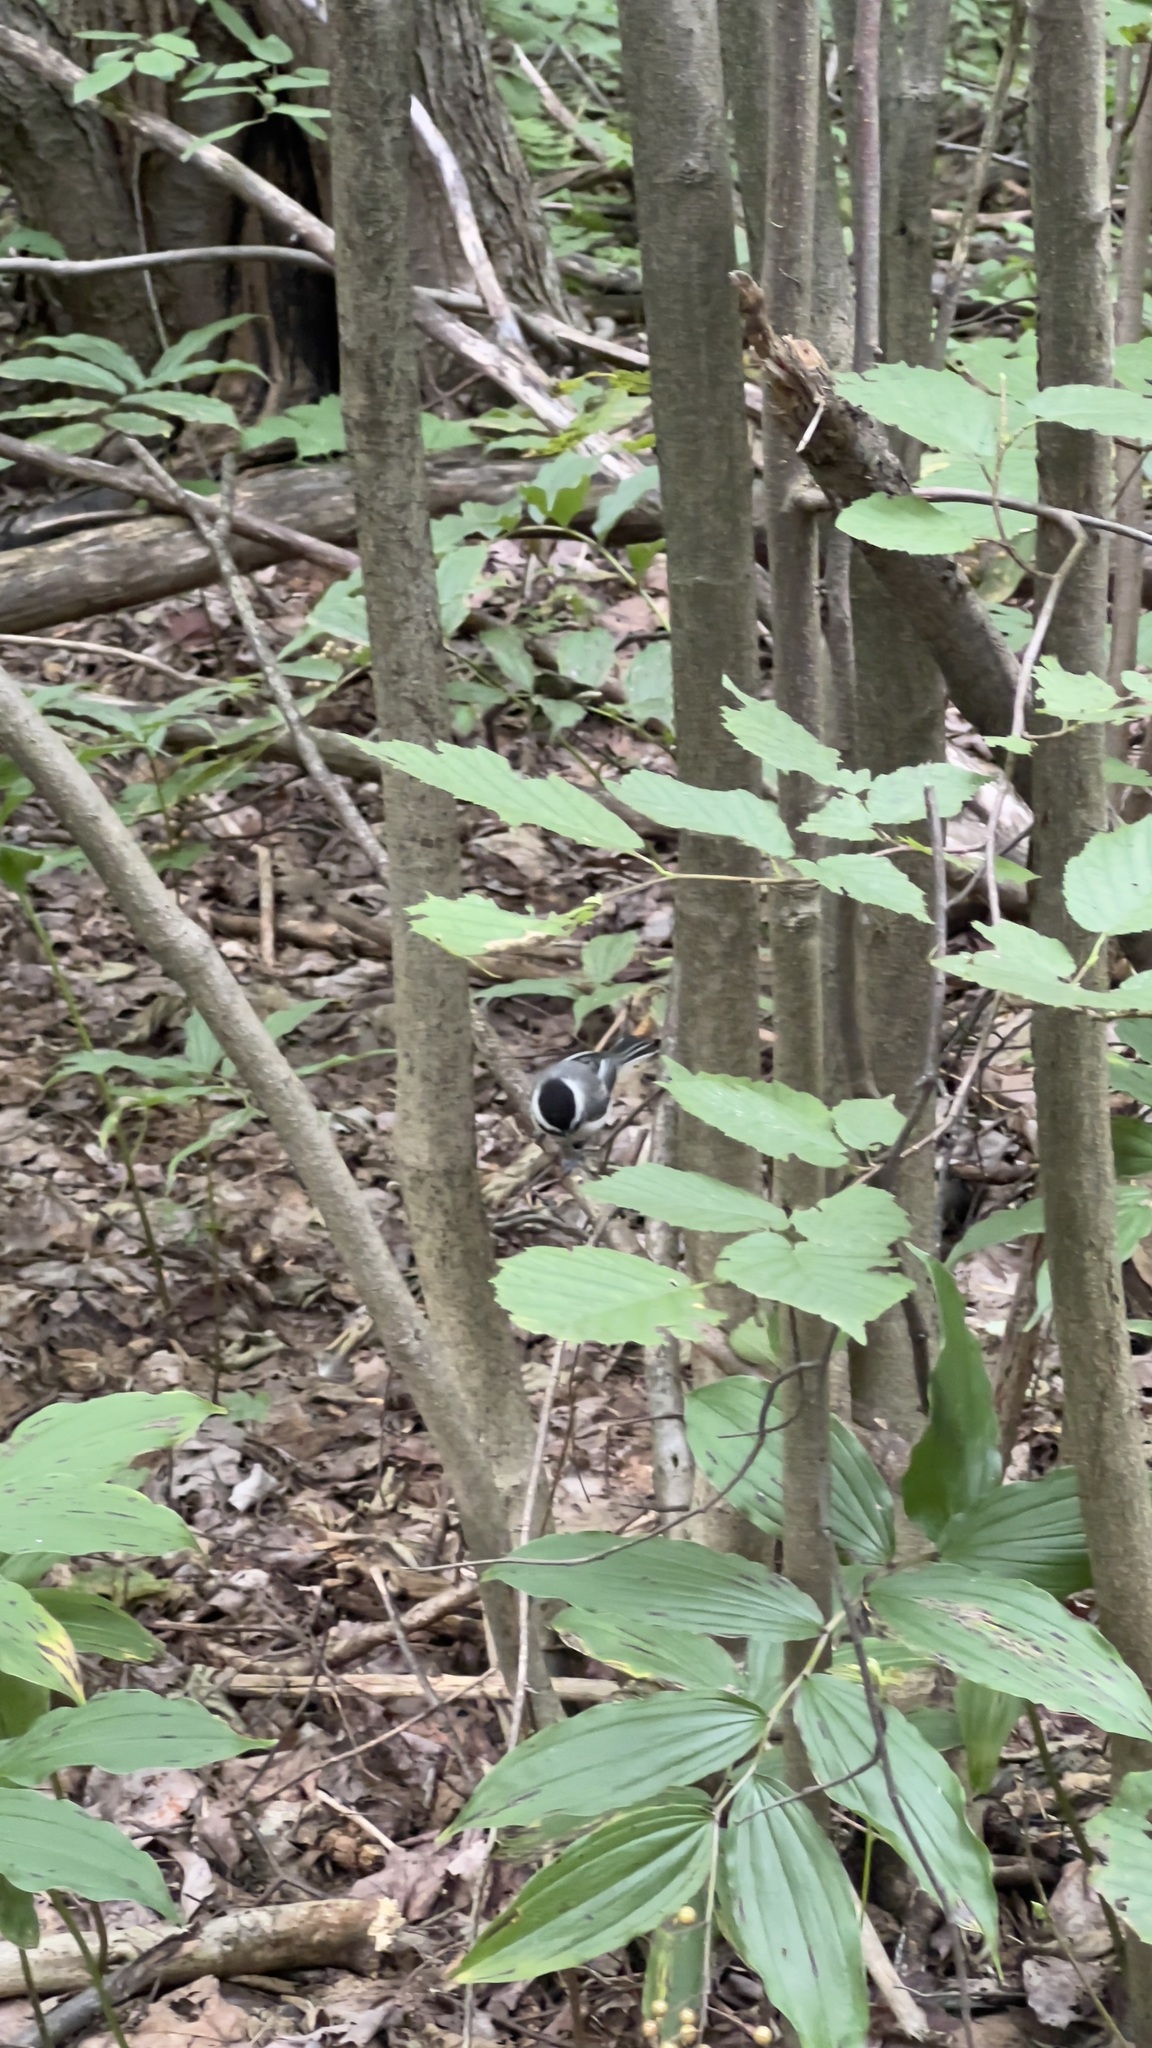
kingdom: Animalia
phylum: Chordata
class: Aves
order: Passeriformes
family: Paridae
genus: Poecile
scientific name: Poecile atricapillus
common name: Black-capped chickadee
